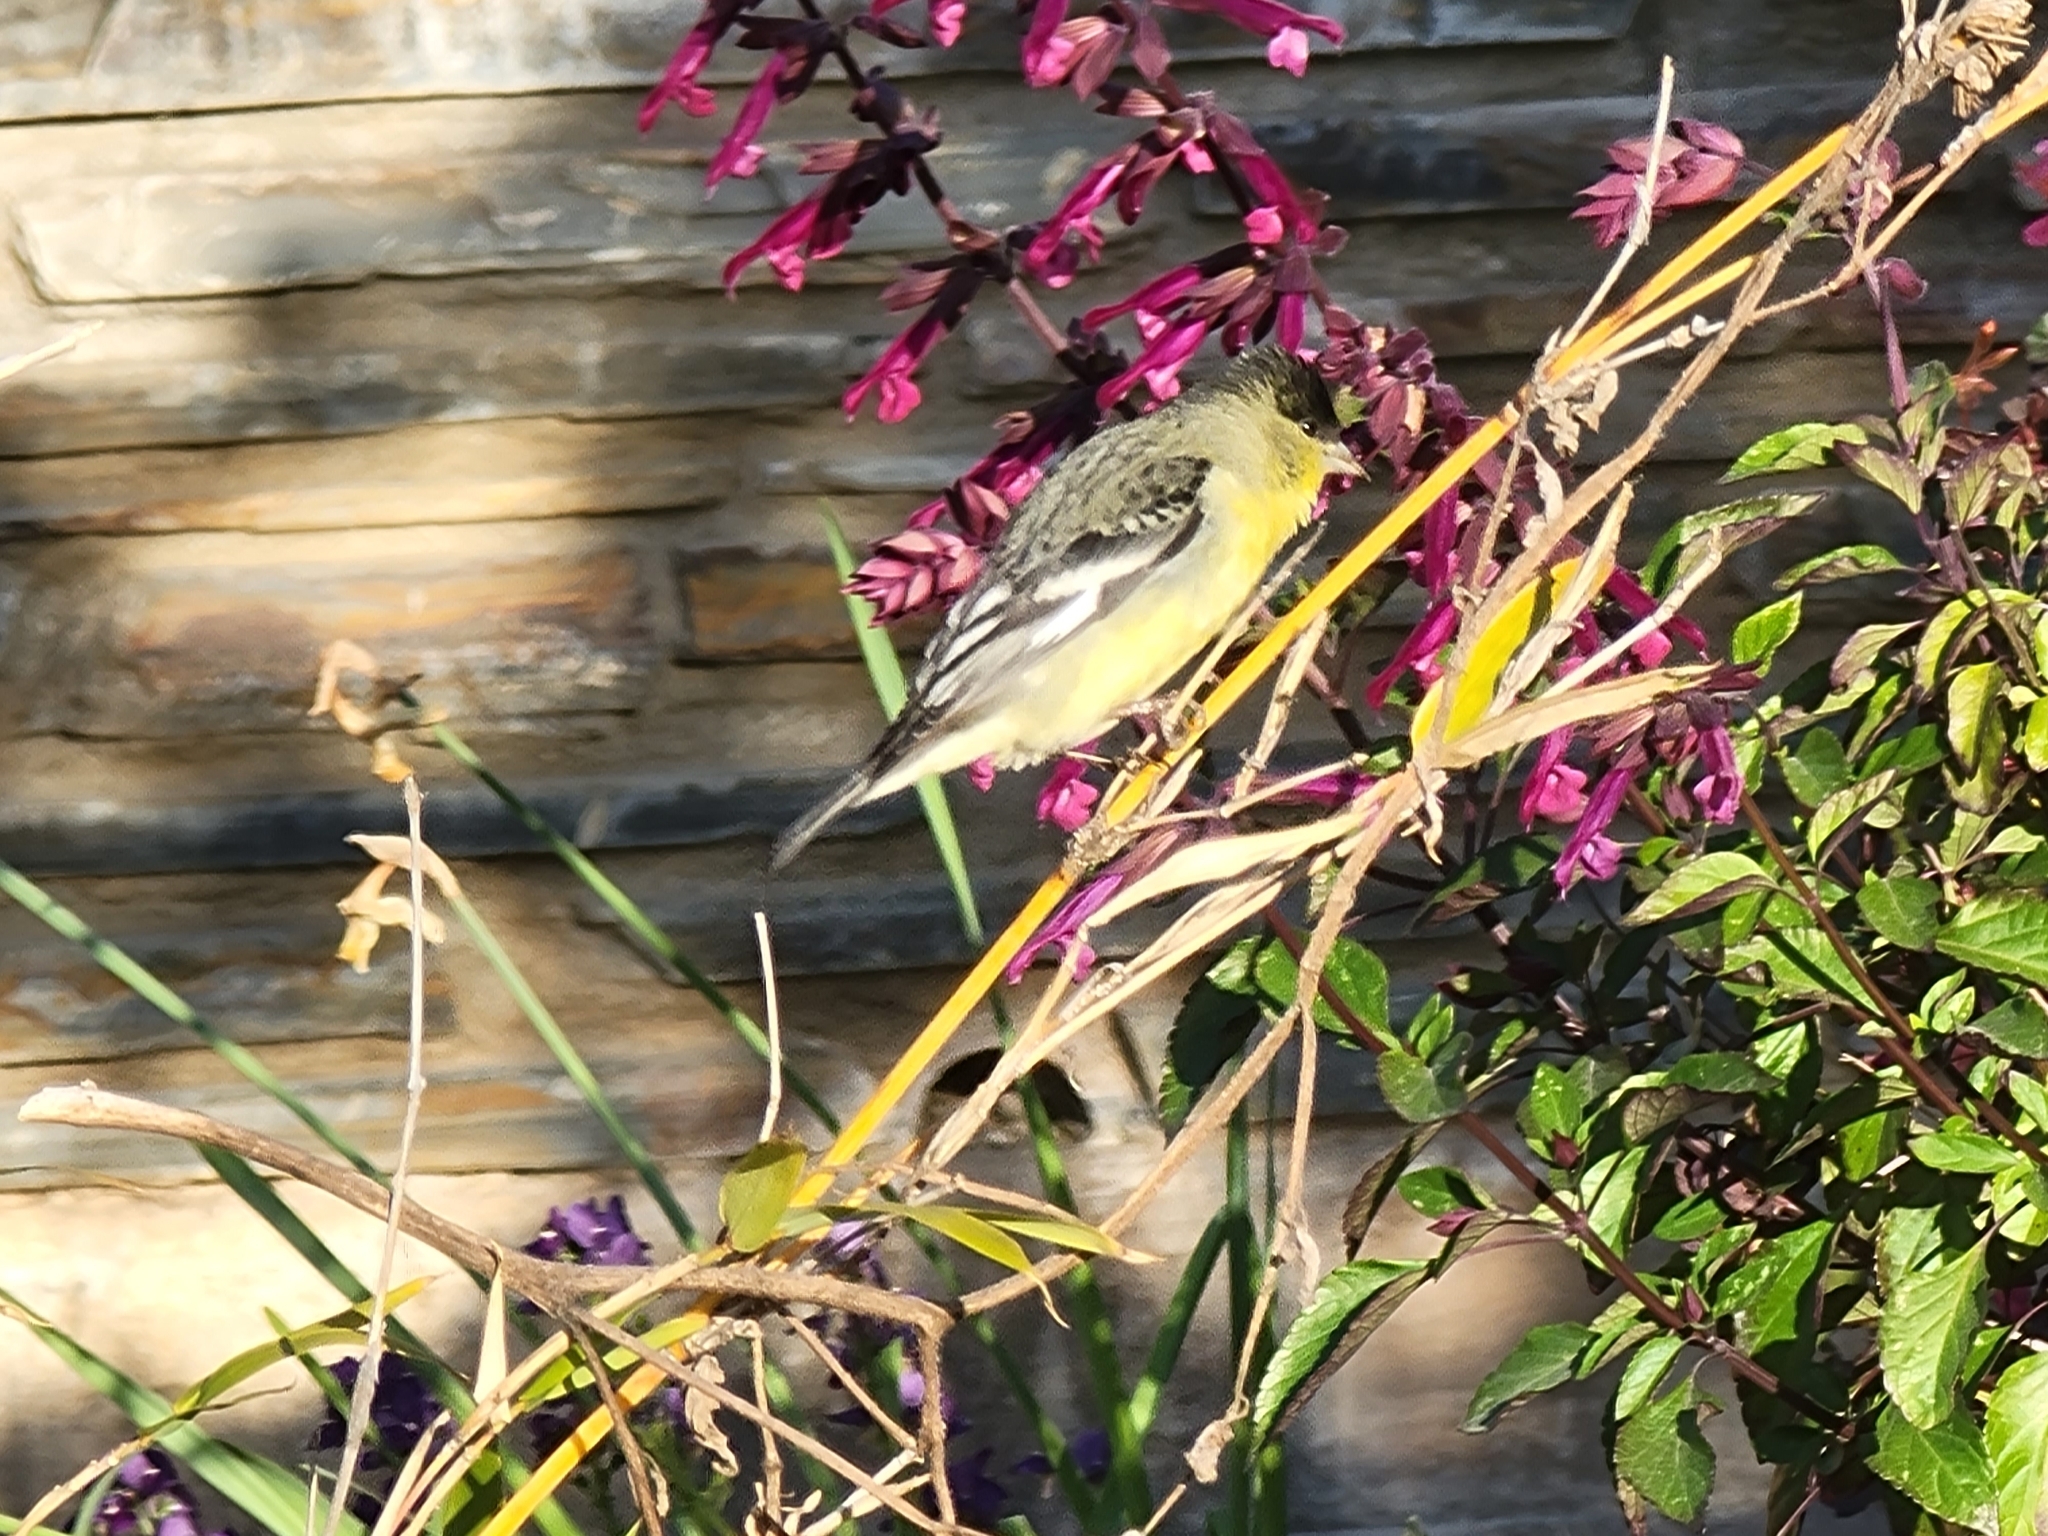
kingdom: Animalia
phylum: Chordata
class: Aves
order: Passeriformes
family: Fringillidae
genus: Spinus
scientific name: Spinus psaltria
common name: Lesser goldfinch
